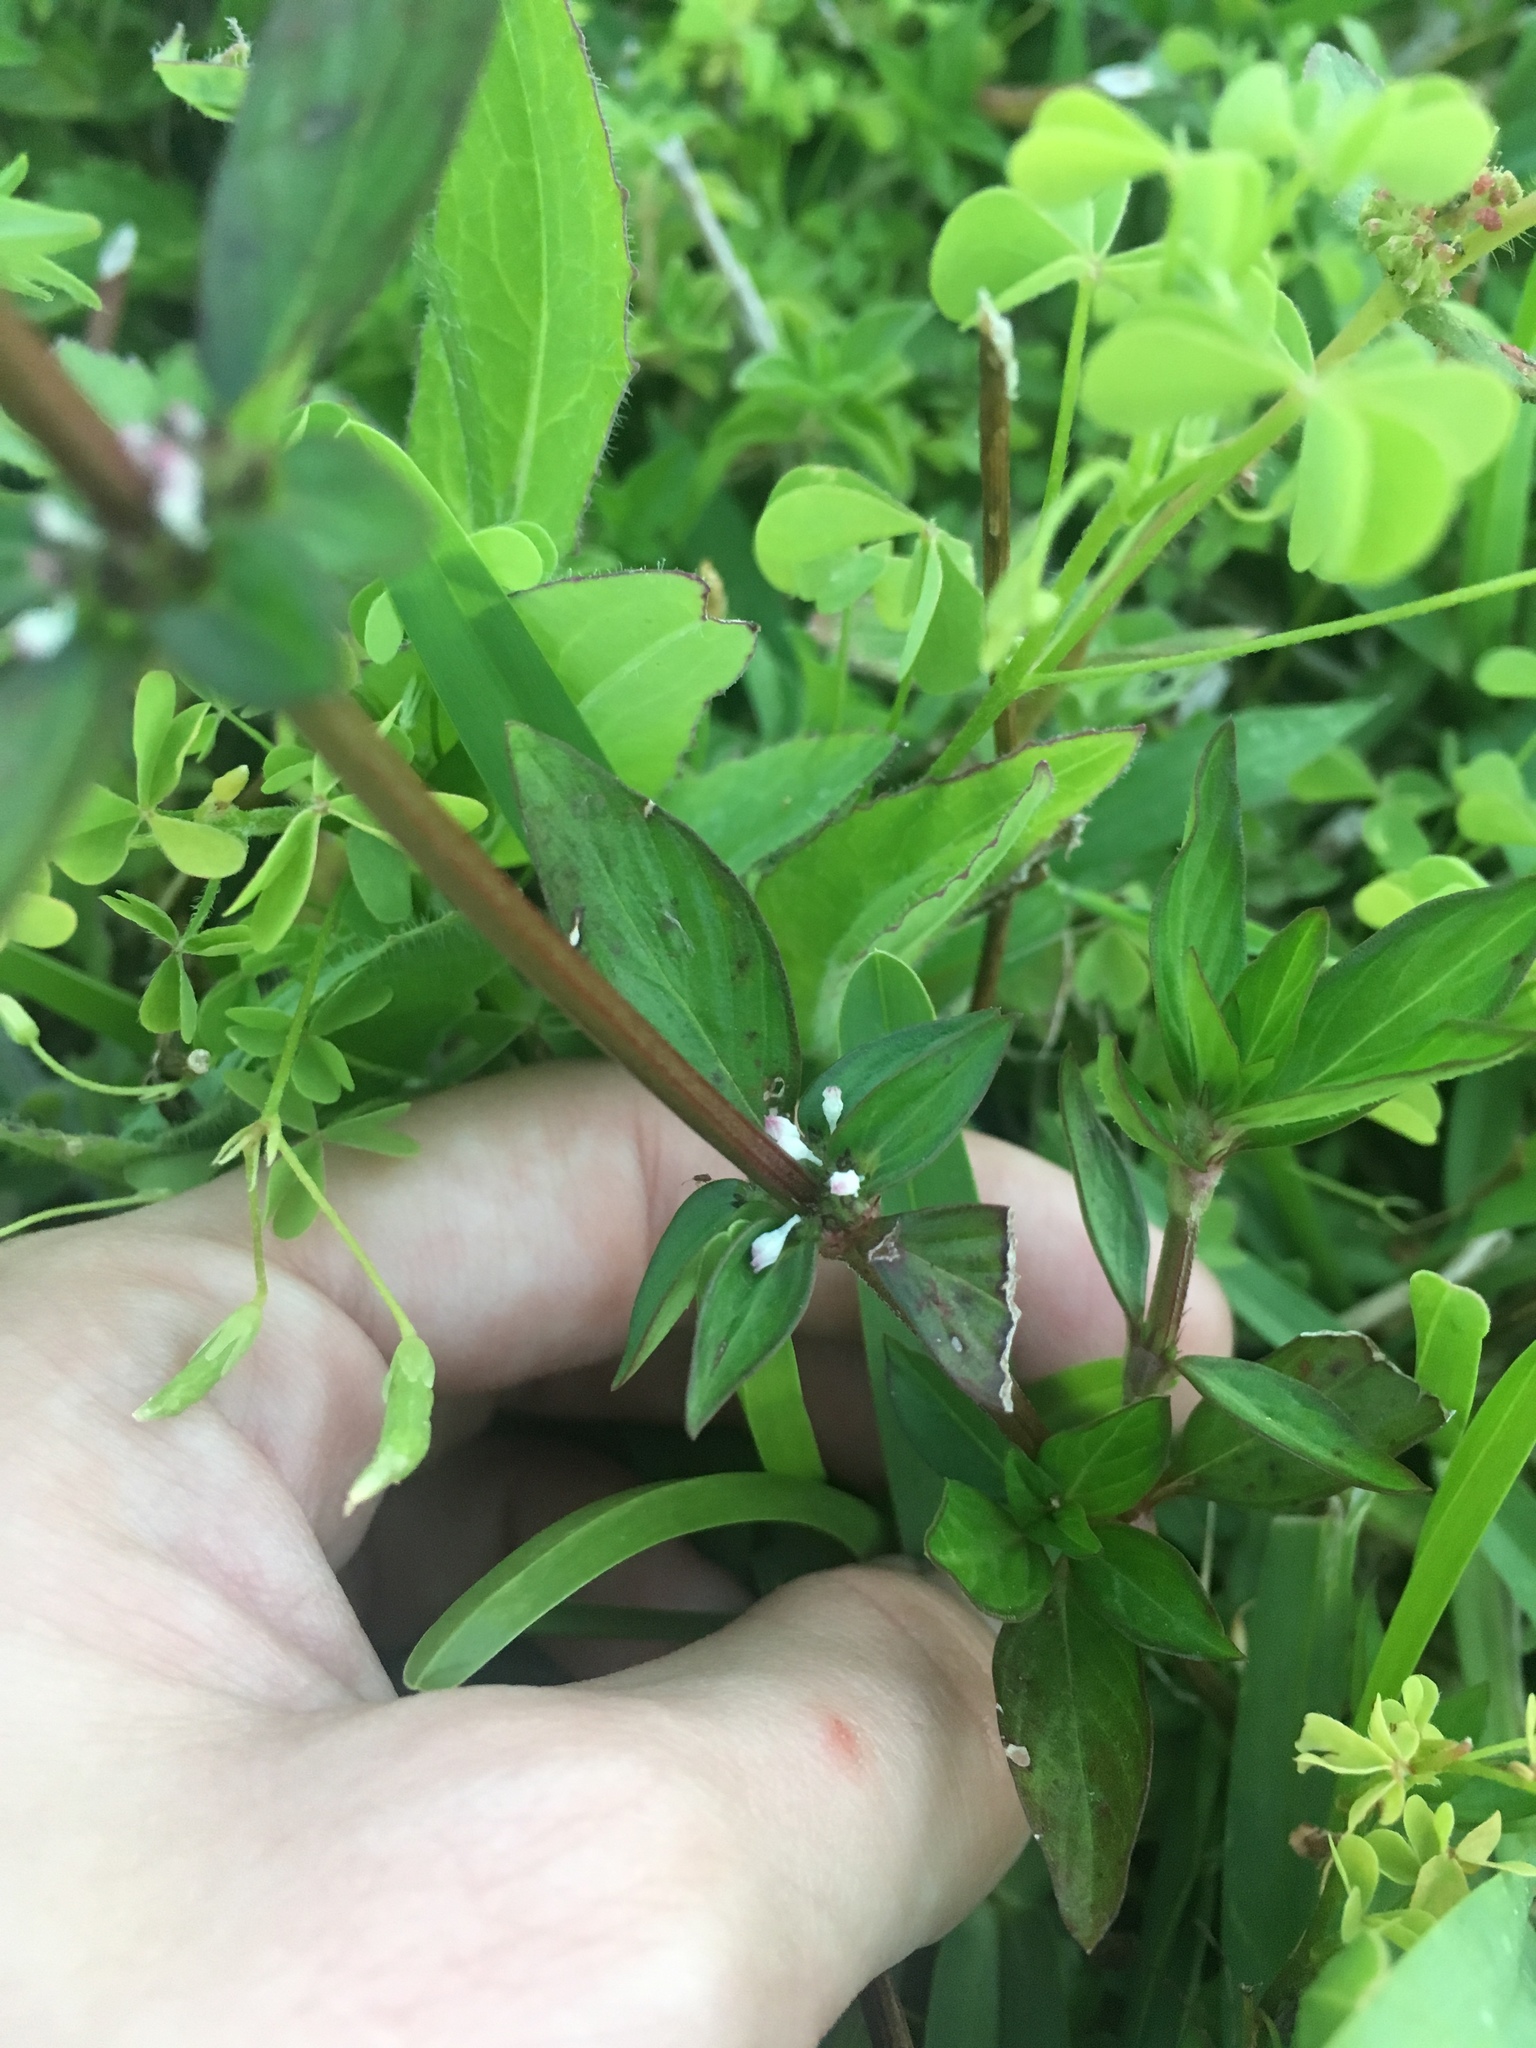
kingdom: Plantae
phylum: Tracheophyta
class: Magnoliopsida
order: Gentianales
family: Rubiaceae
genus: Spermacoce
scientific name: Spermacoce remota
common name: Woodland false buttonweed
